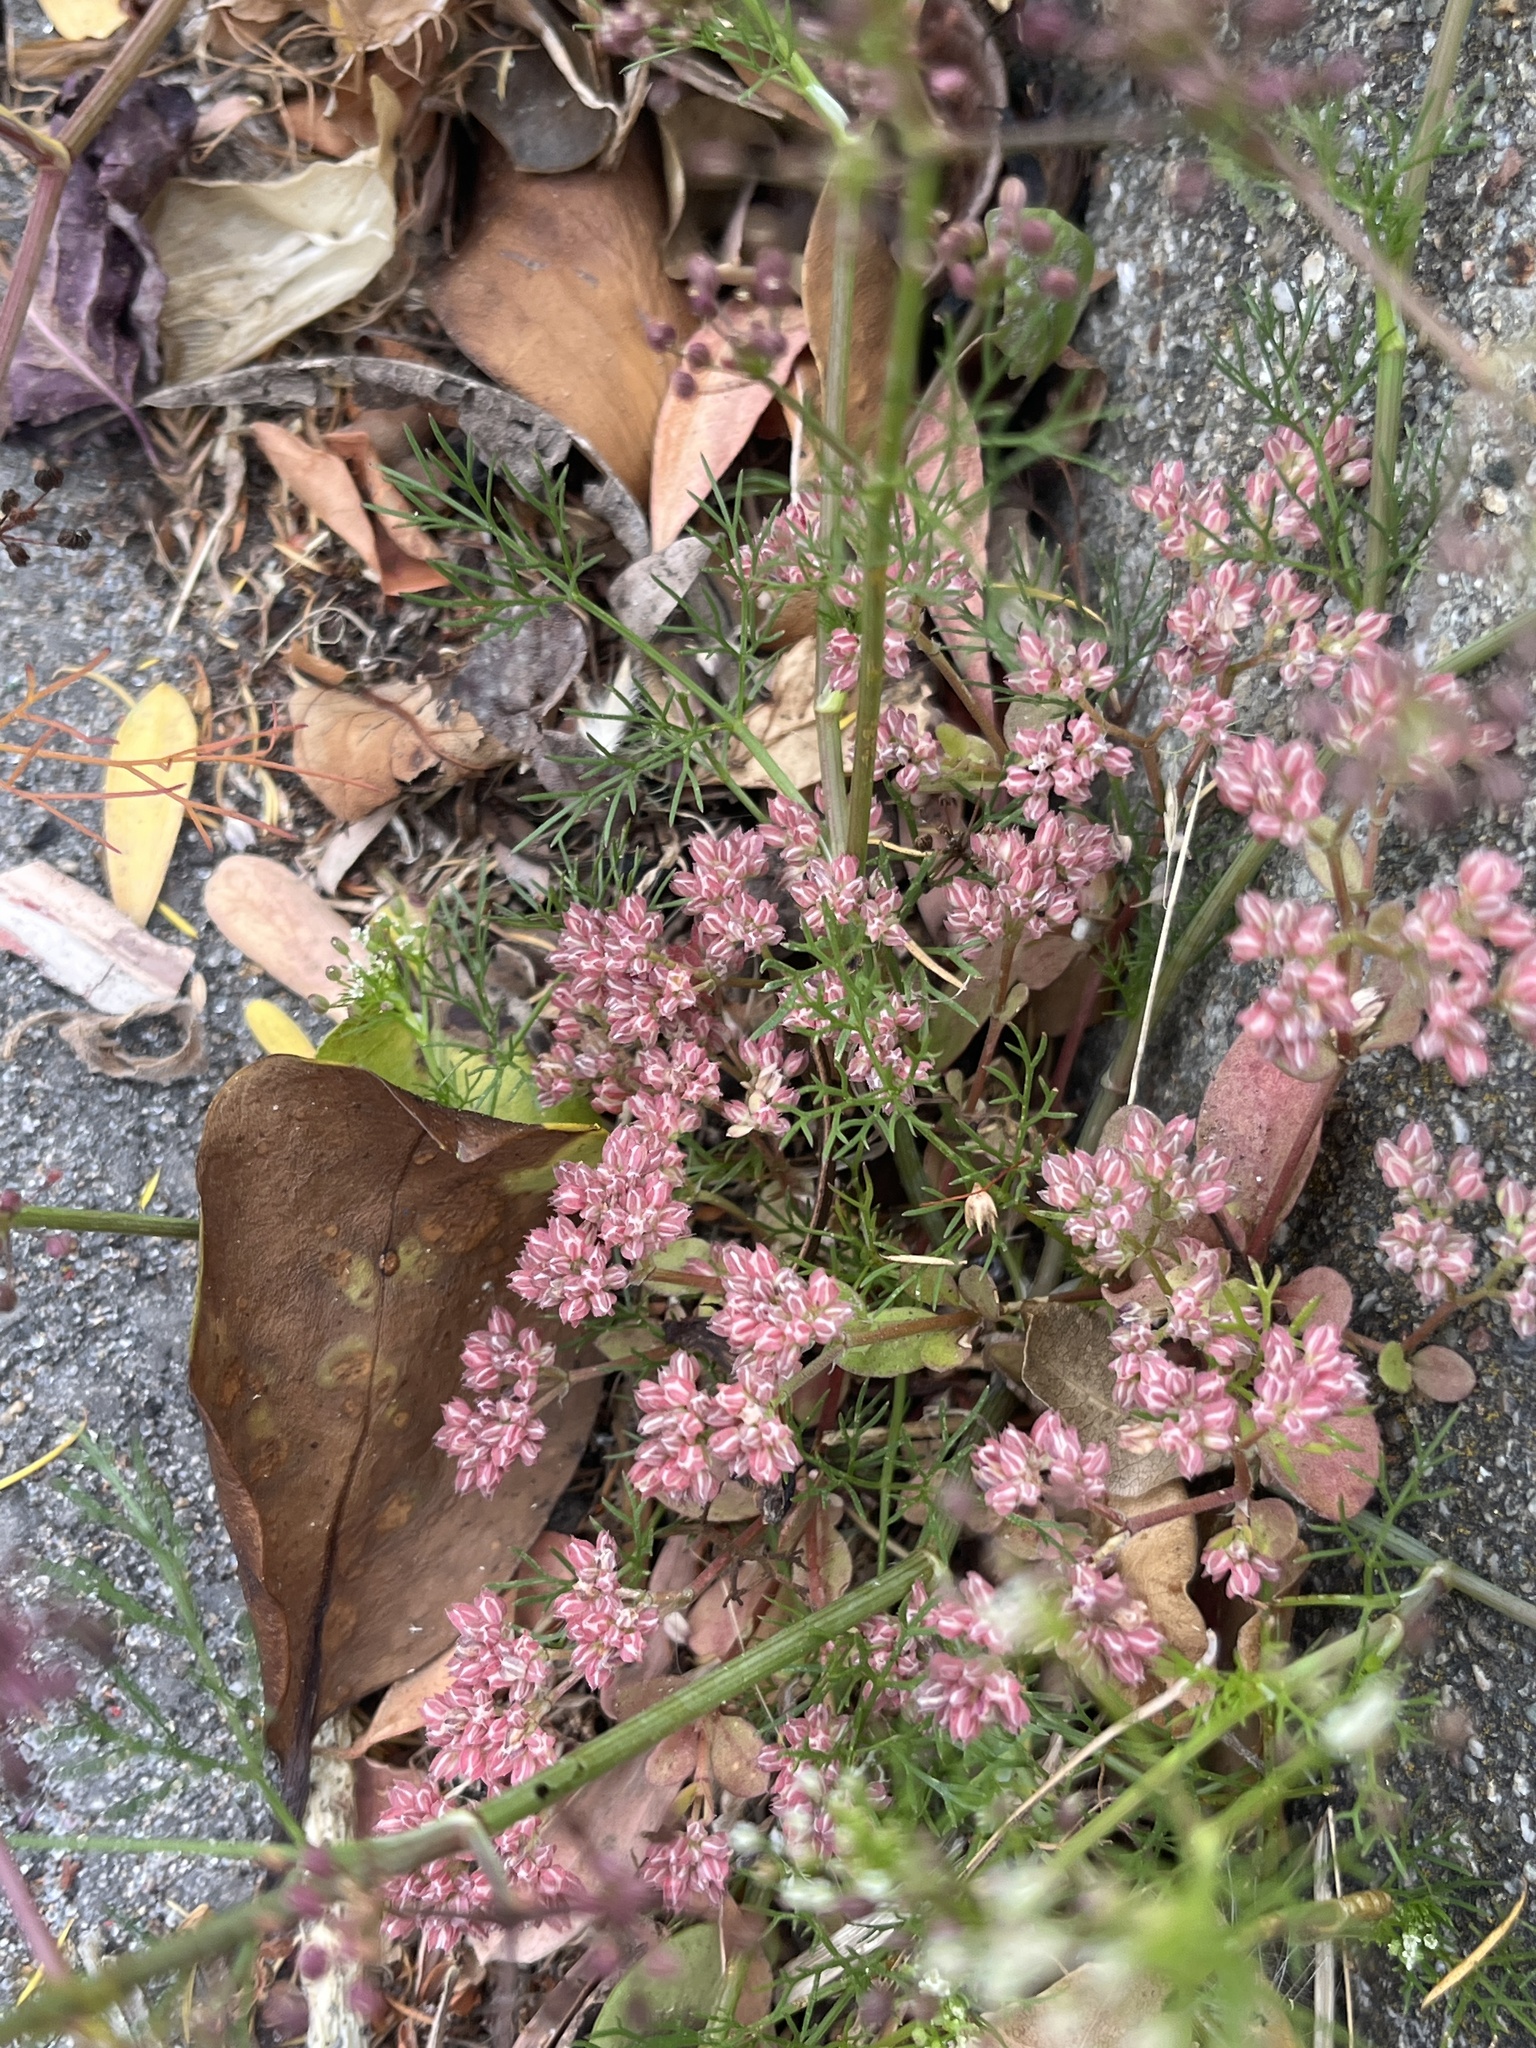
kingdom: Plantae
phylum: Tracheophyta
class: Magnoliopsida
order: Caryophyllales
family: Caryophyllaceae
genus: Polycarpon
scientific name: Polycarpon tetraphyllum
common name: Four-leaved all-seed
